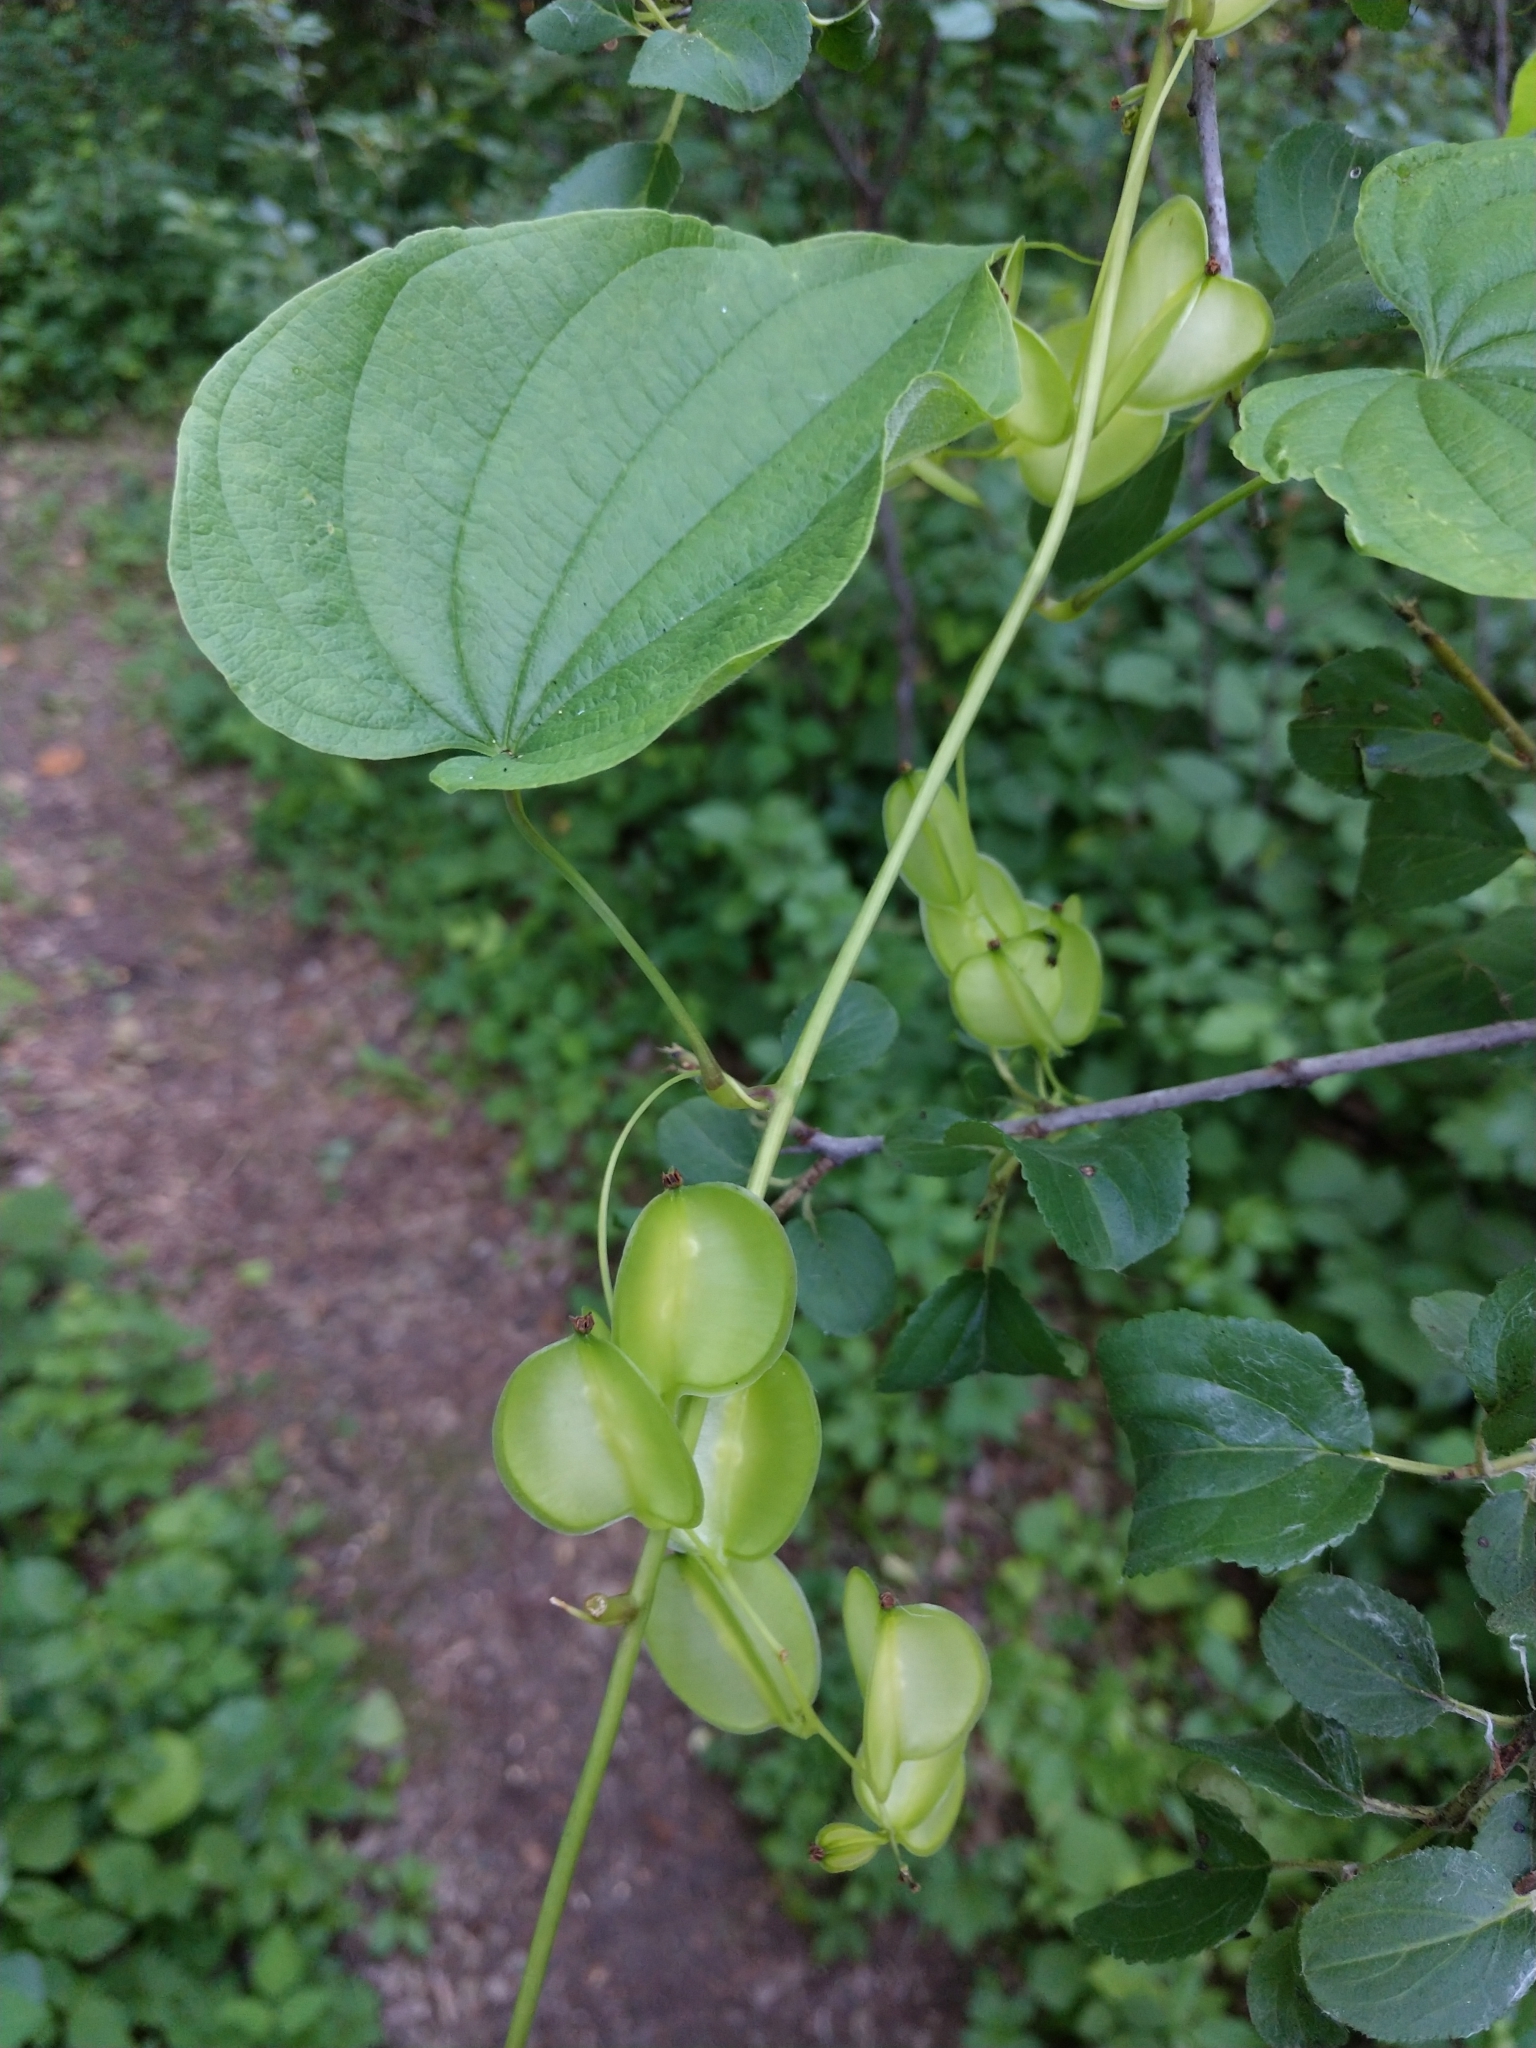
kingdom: Plantae
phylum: Tracheophyta
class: Liliopsida
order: Dioscoreales
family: Dioscoreaceae
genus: Dioscorea
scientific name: Dioscorea villosa
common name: Wild yam
